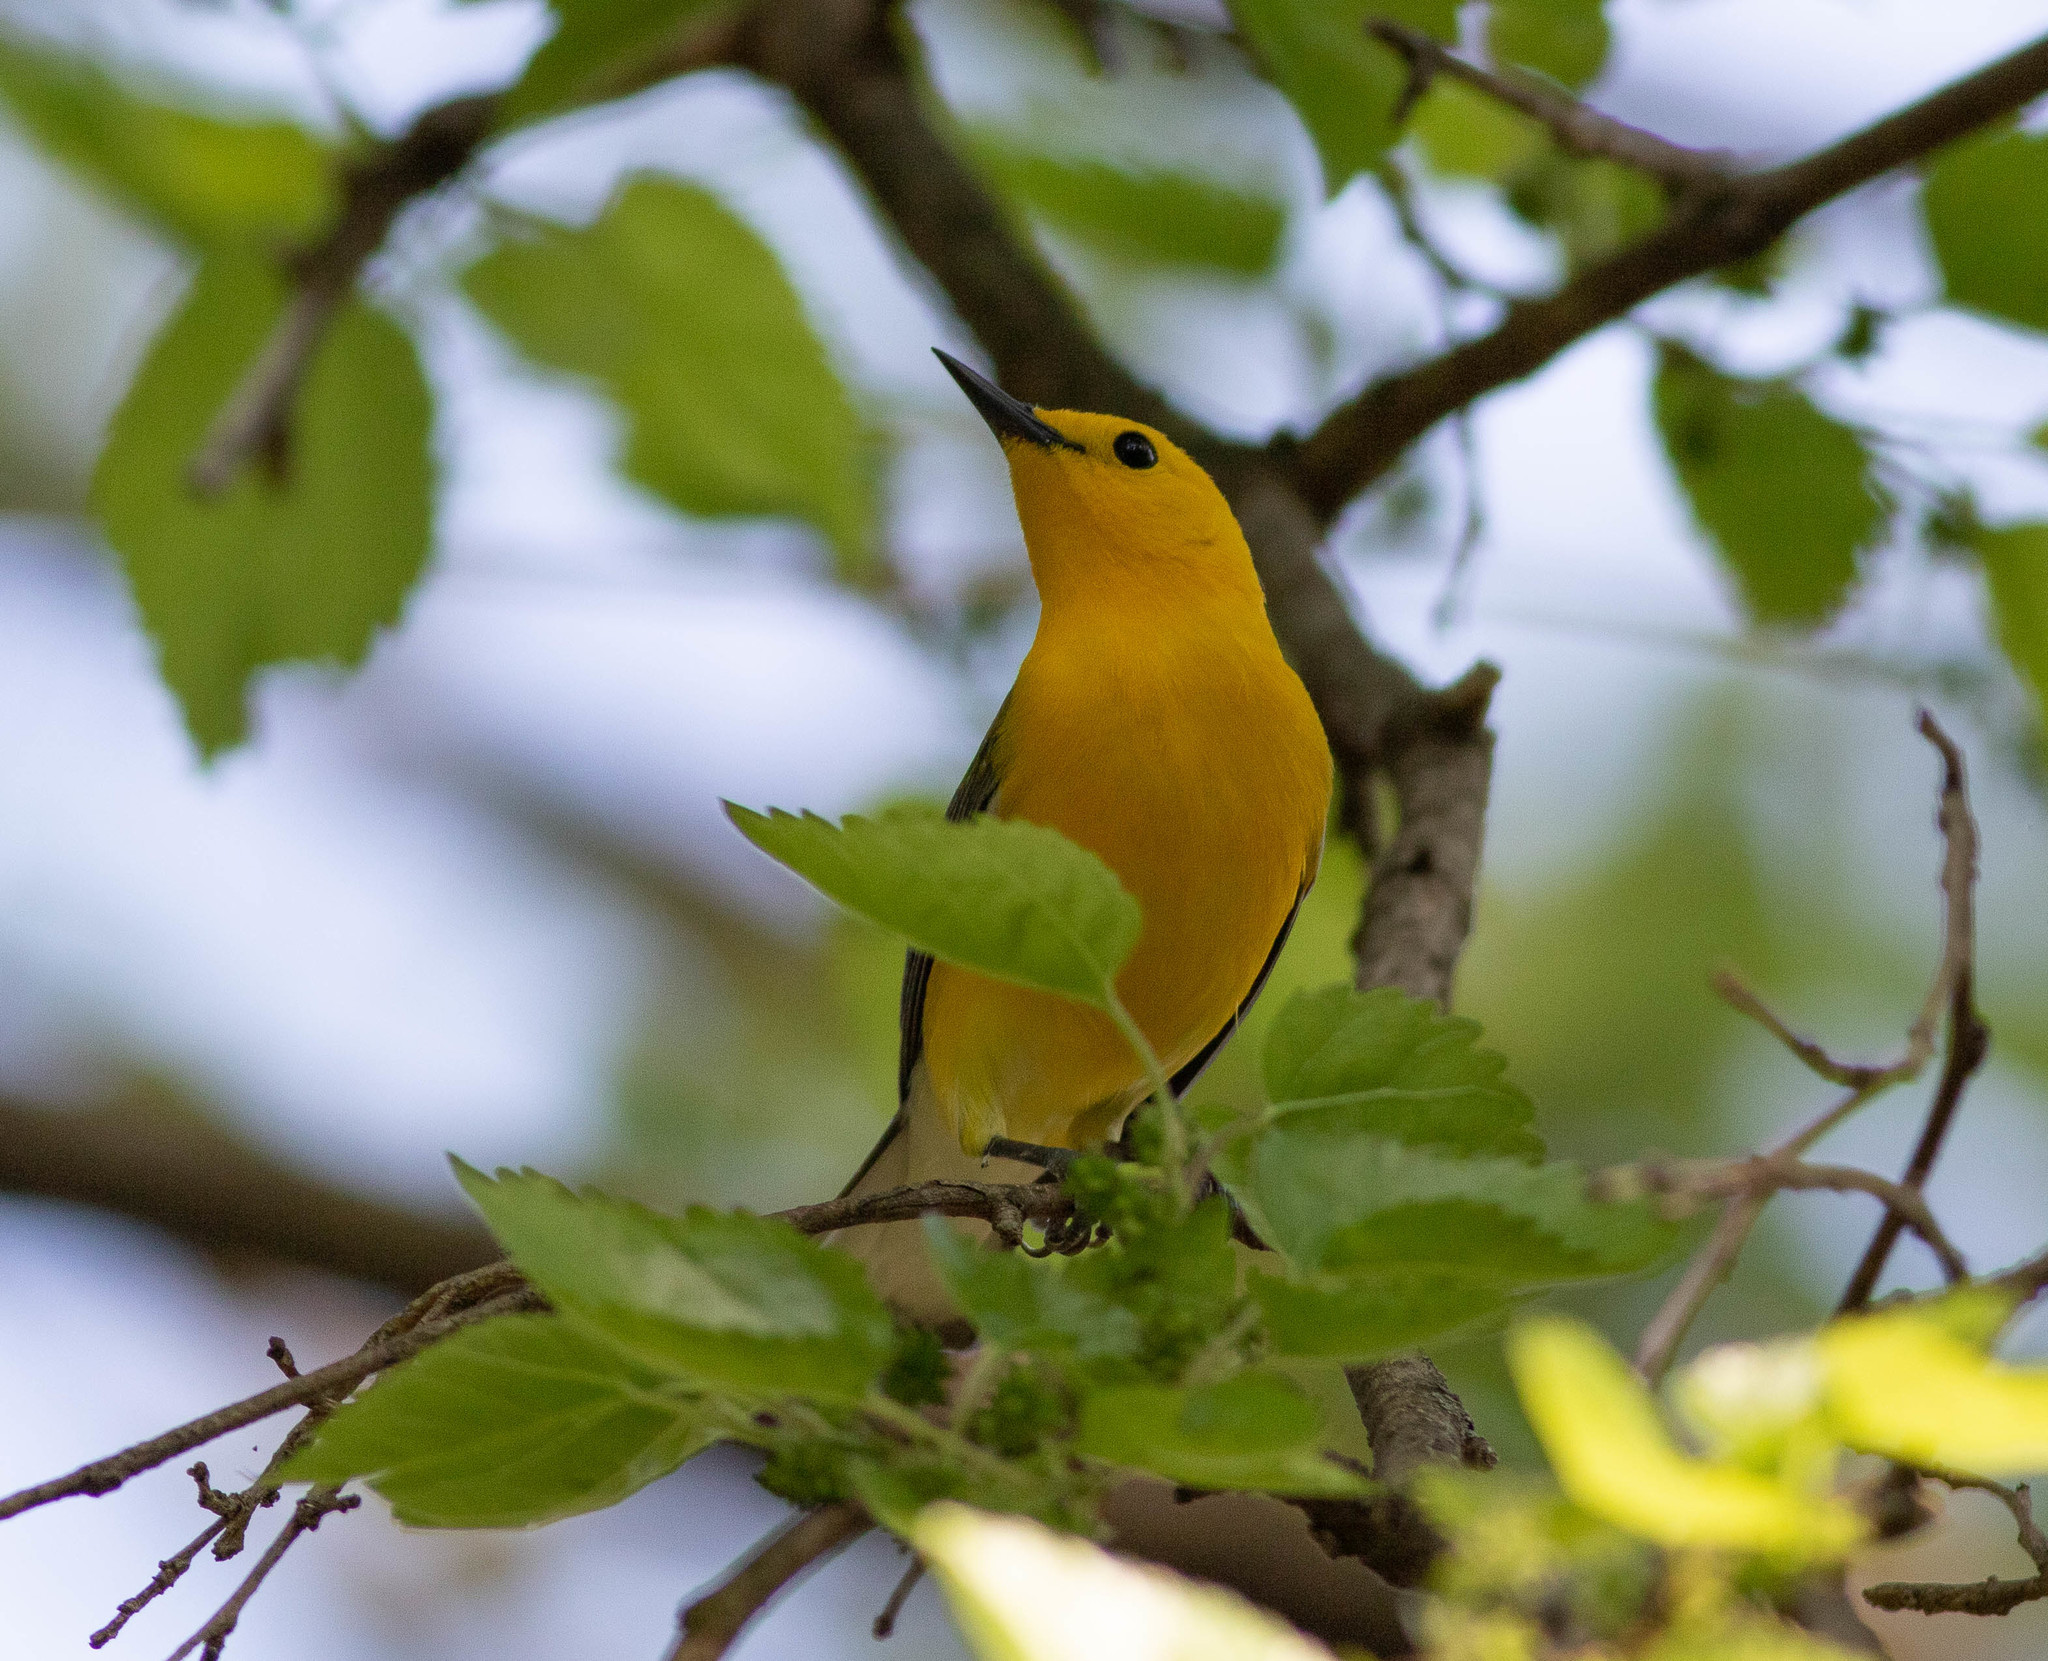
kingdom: Animalia
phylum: Chordata
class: Aves
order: Passeriformes
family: Parulidae
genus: Protonotaria
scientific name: Protonotaria citrea
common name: Prothonotary warbler
